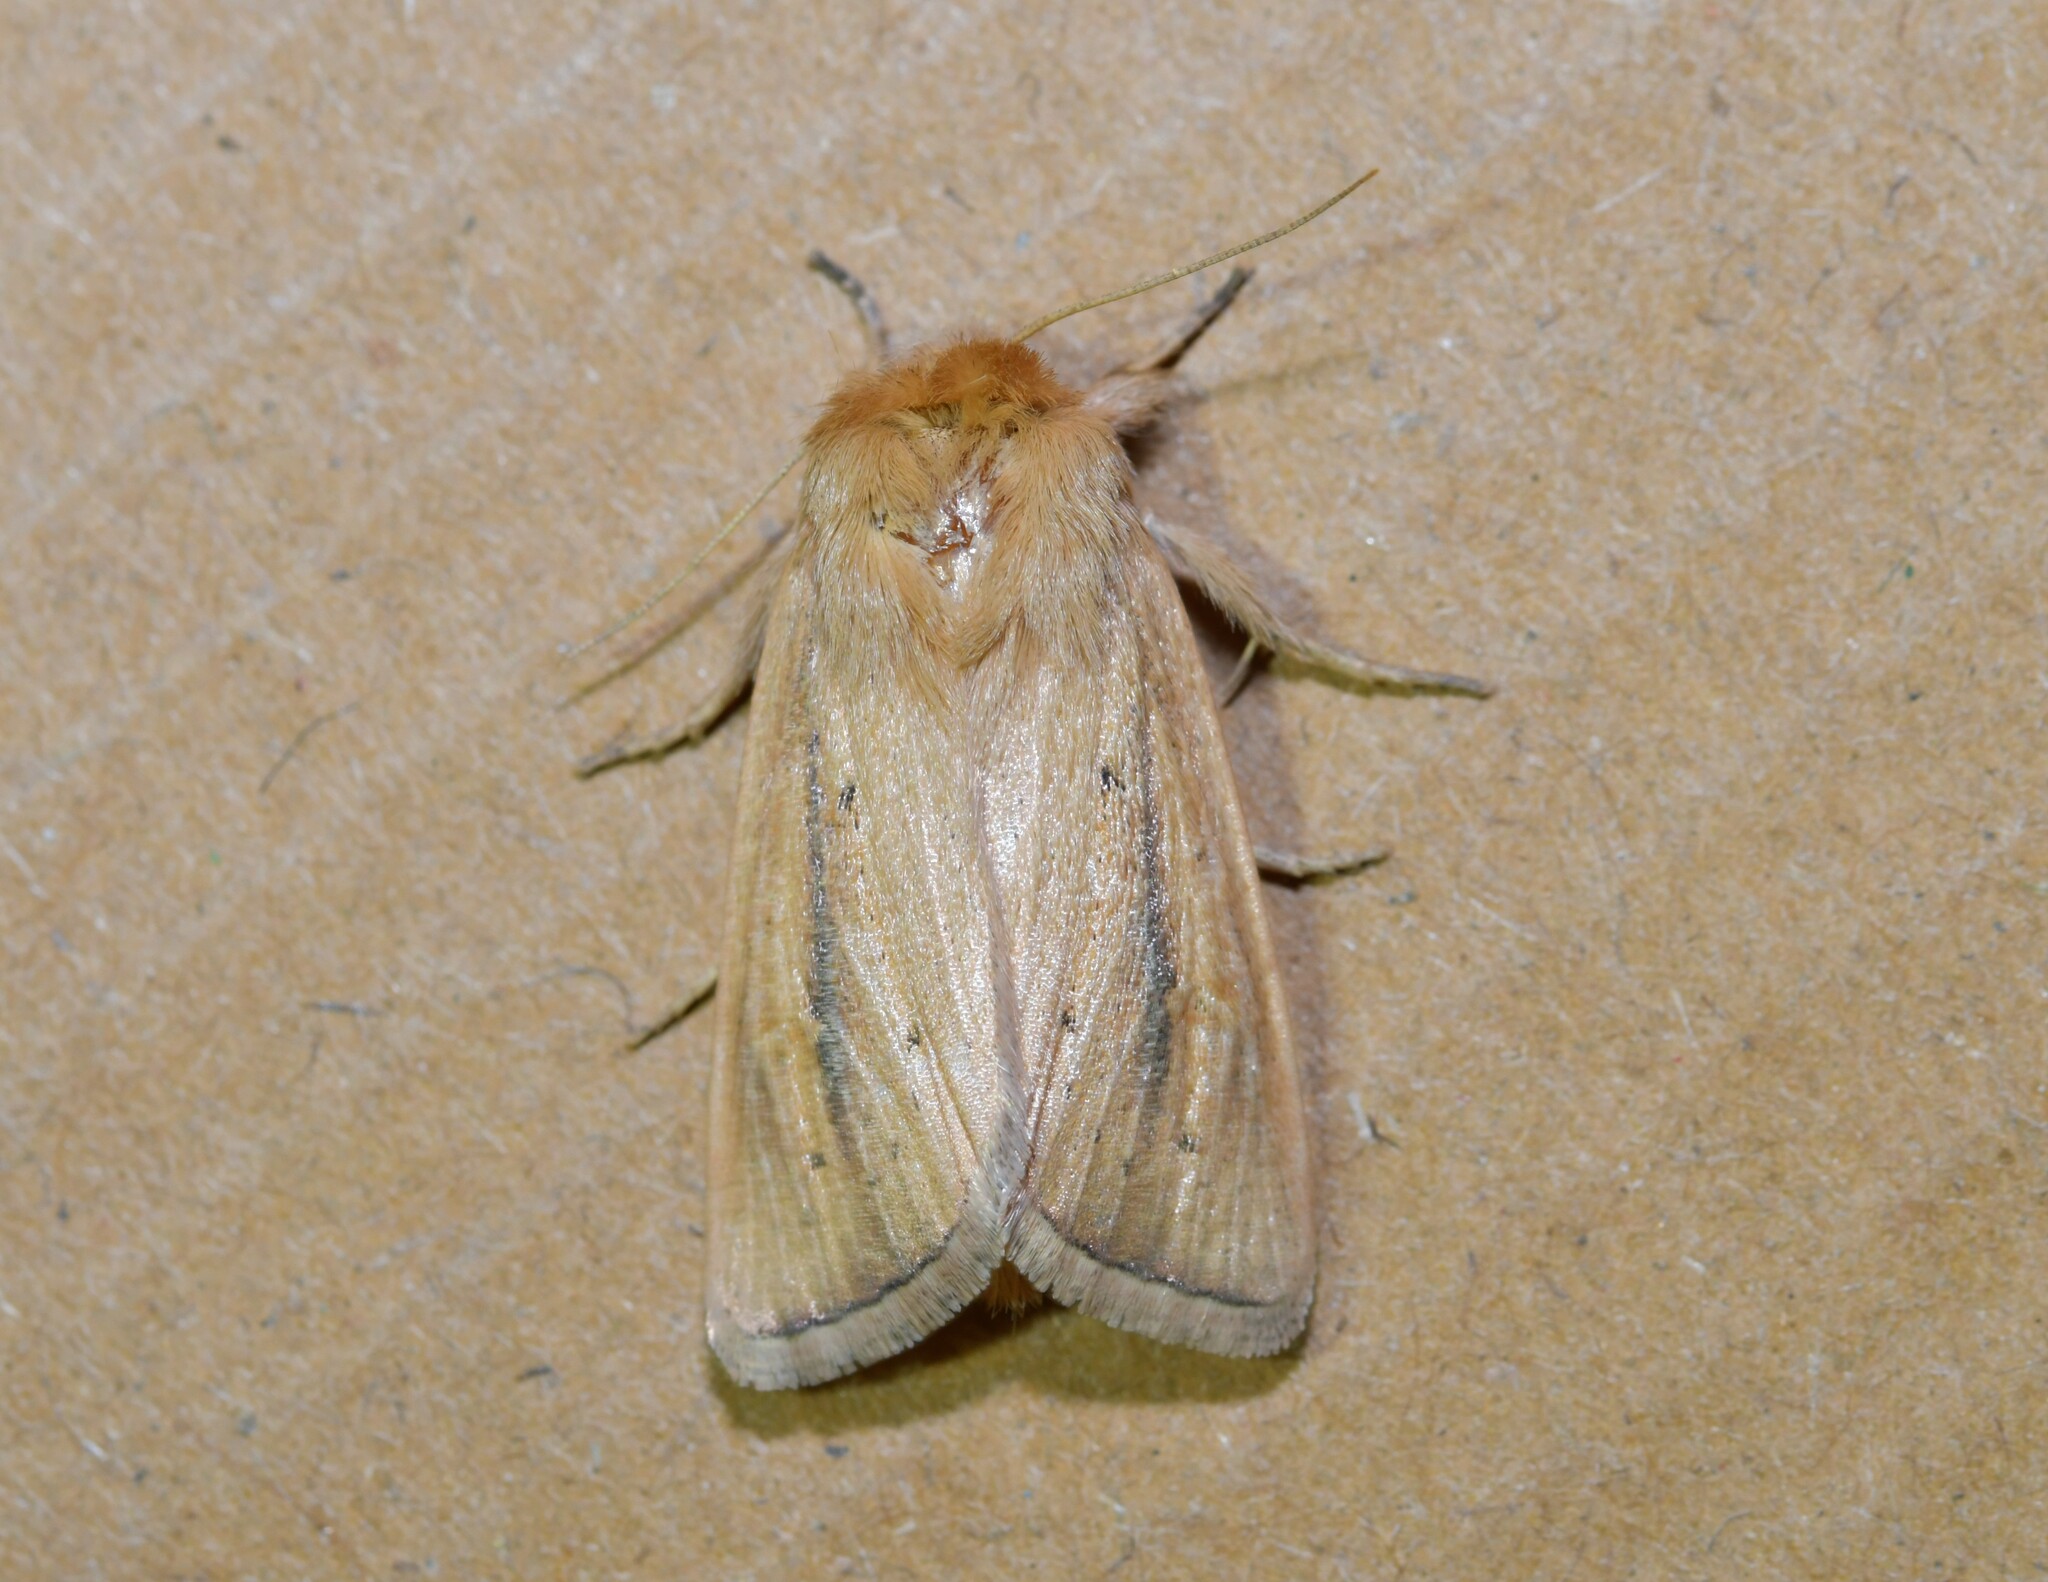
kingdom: Animalia
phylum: Arthropoda
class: Insecta
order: Lepidoptera
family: Noctuidae
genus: Sesamia
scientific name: Sesamia nonagrioides
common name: Pink stem borer
